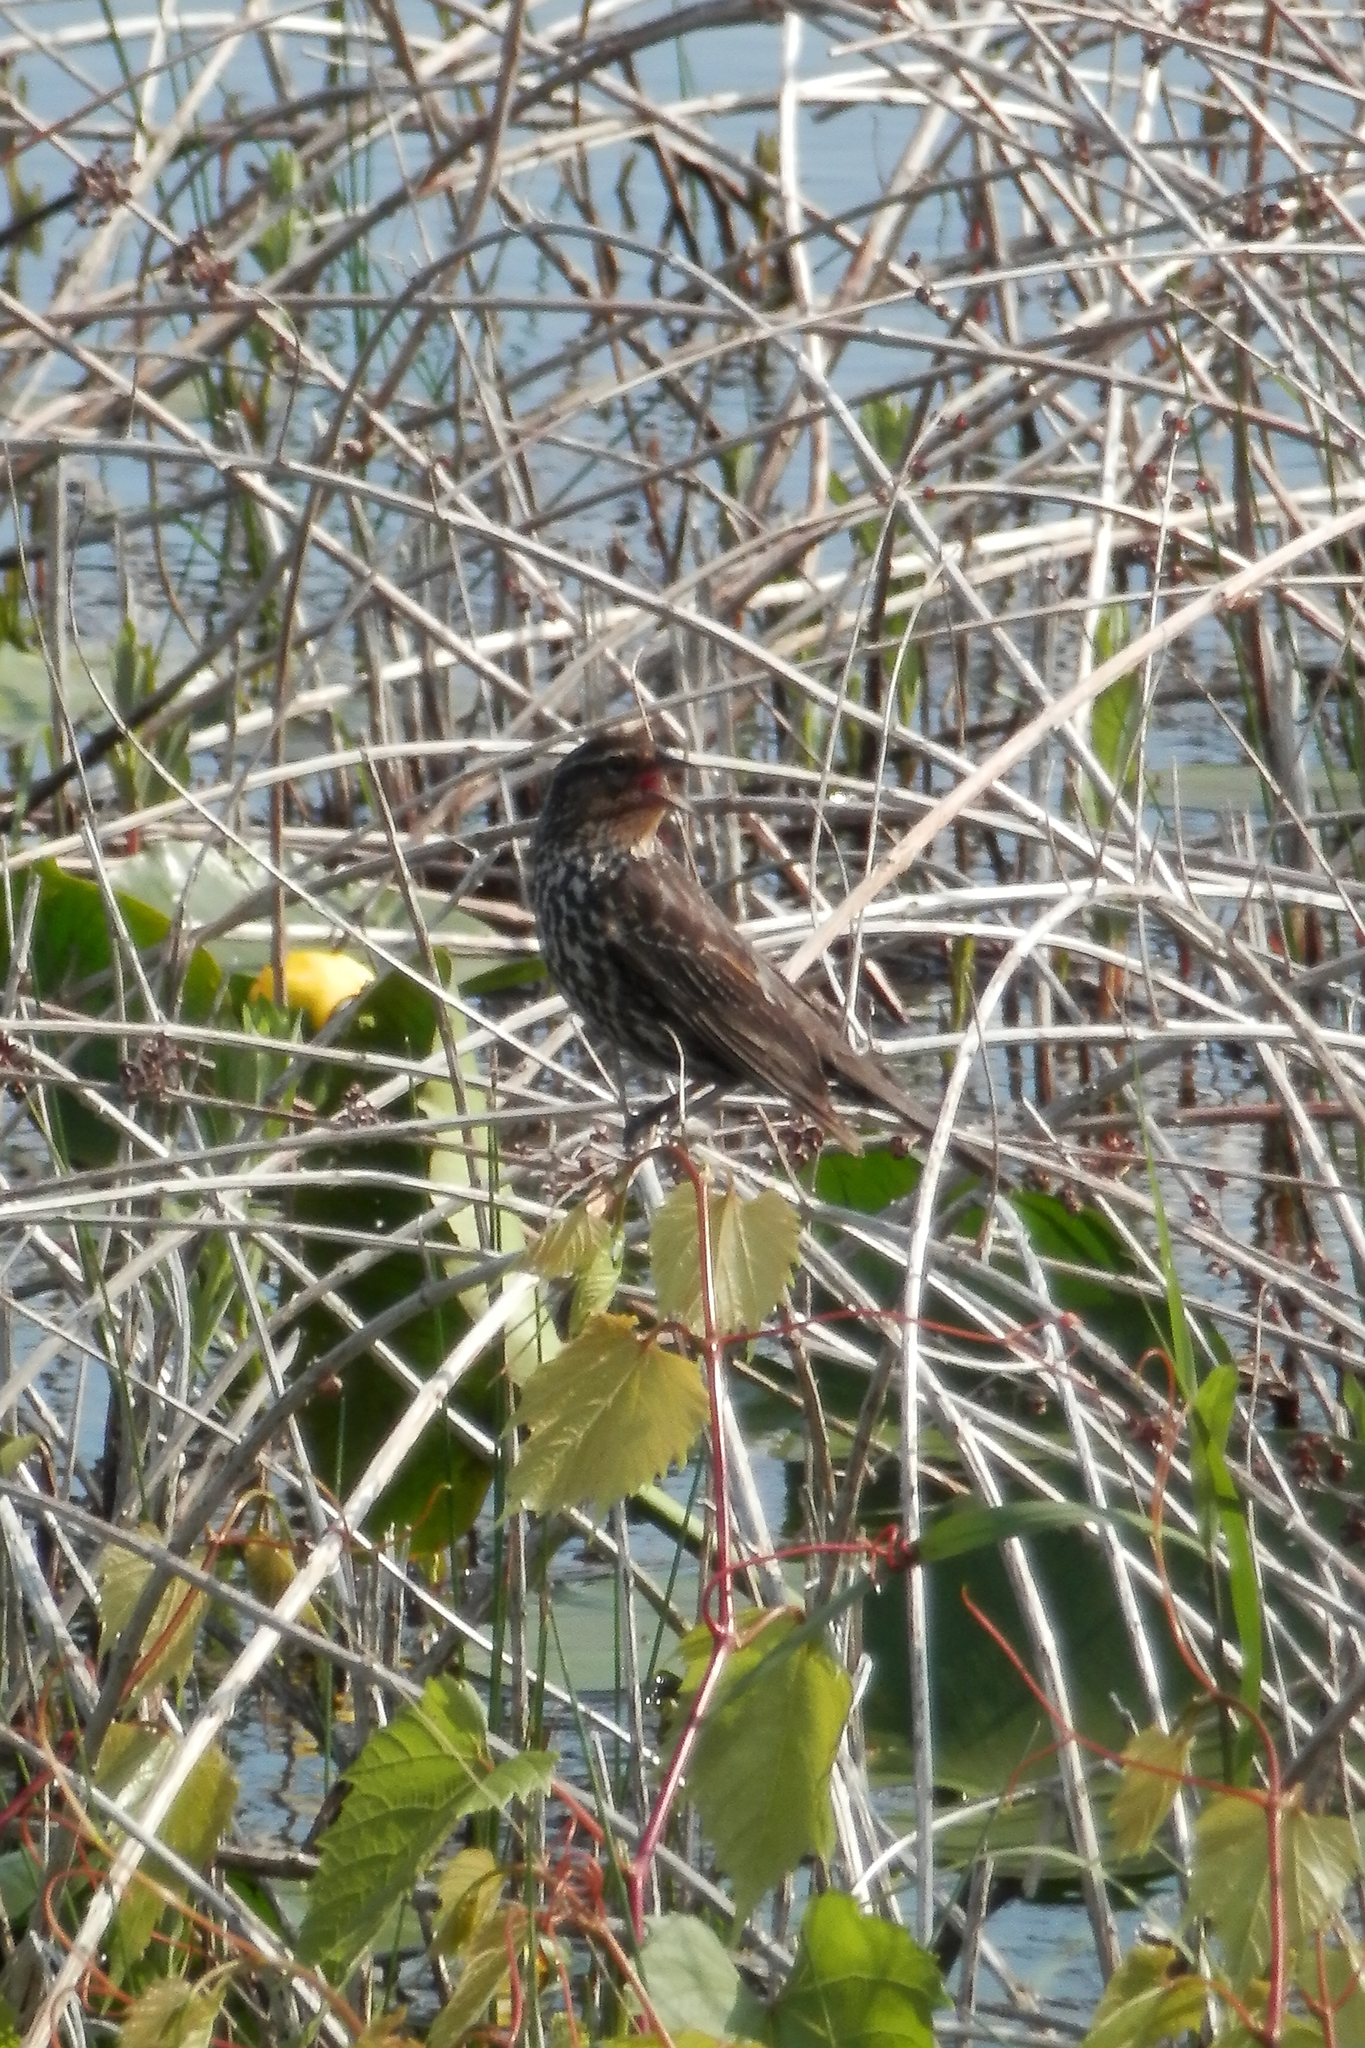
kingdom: Animalia
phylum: Chordata
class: Aves
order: Passeriformes
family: Icteridae
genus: Agelaius
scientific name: Agelaius phoeniceus
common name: Red-winged blackbird
